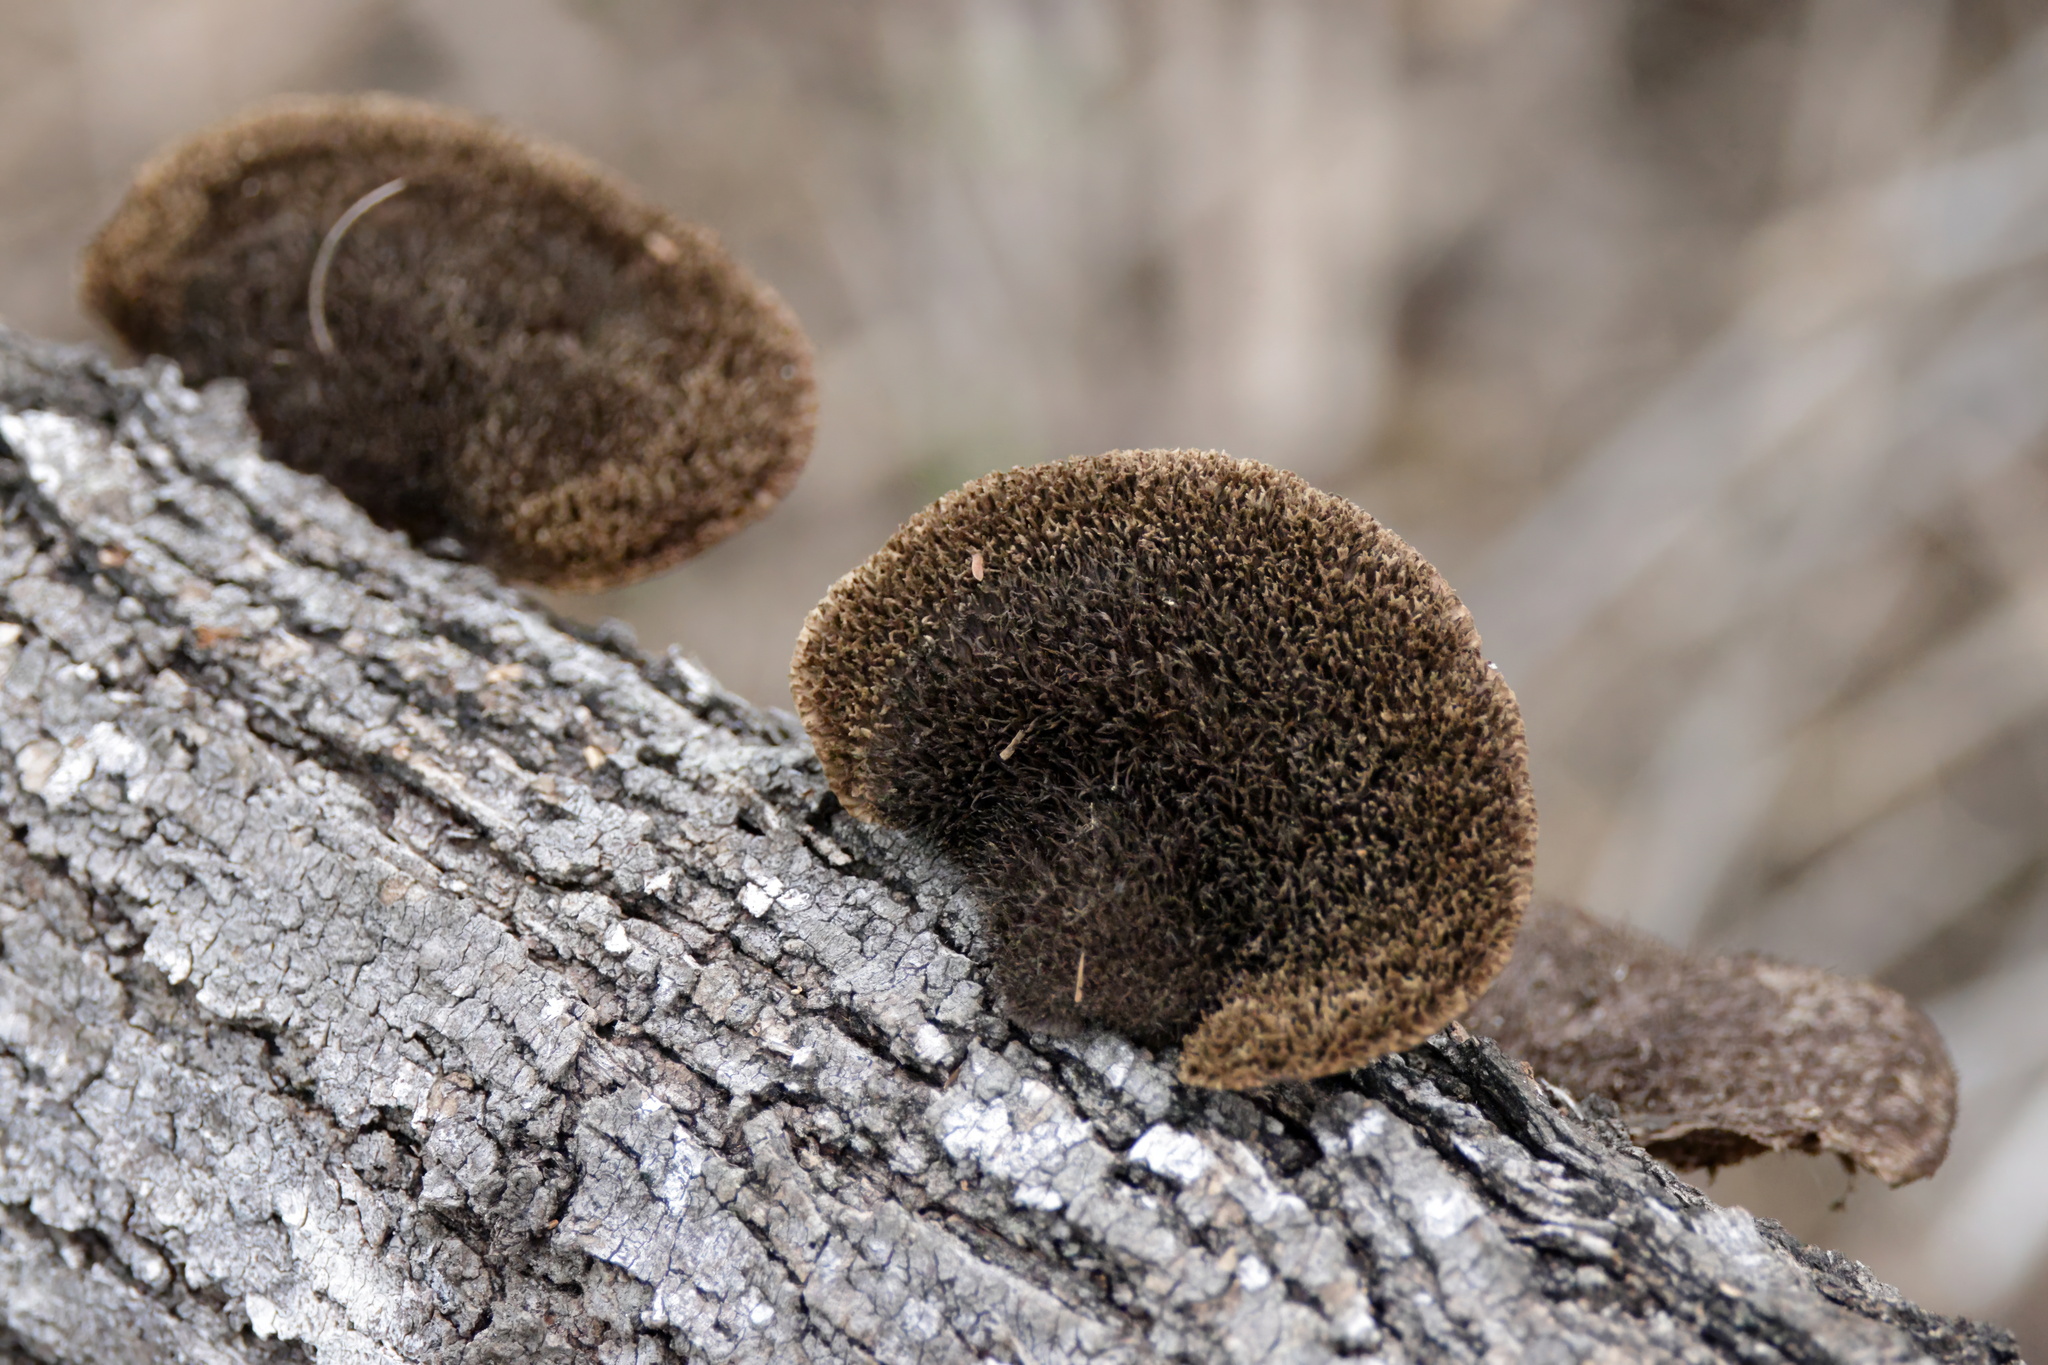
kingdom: Fungi
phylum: Basidiomycota
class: Agaricomycetes
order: Polyporales
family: Cerrenaceae
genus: Cerrena
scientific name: Cerrena hydnoides
